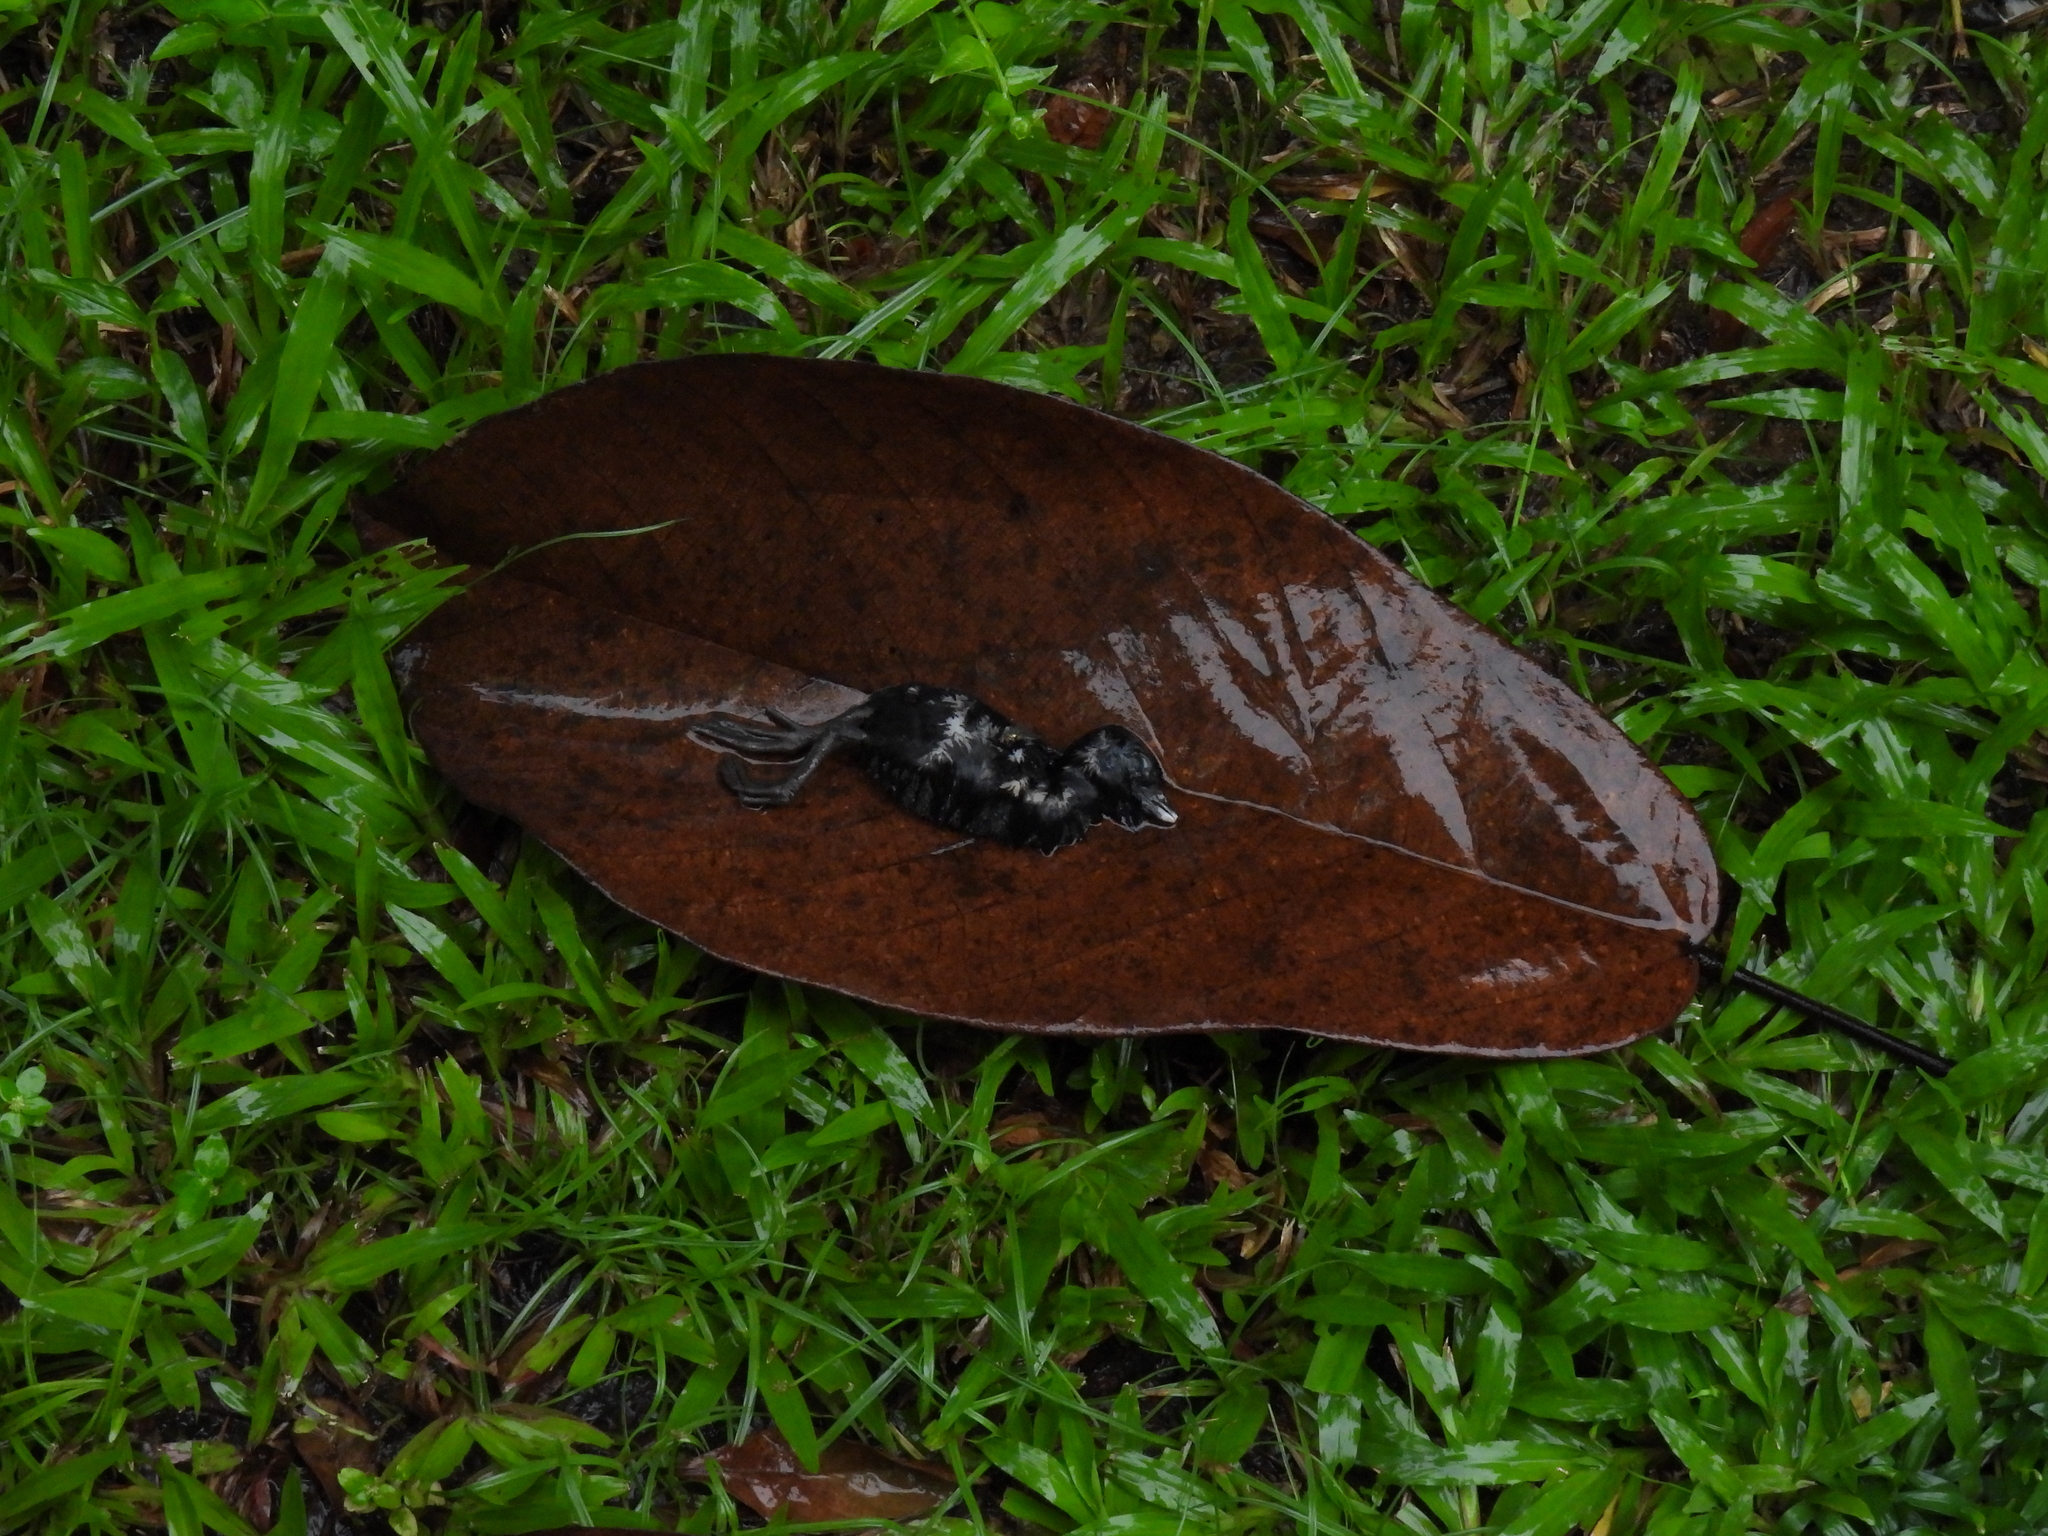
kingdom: Animalia
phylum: Chordata
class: Aves
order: Gruiformes
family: Rallidae
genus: Amaurornis
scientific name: Amaurornis phoenicurus
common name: White-breasted waterhen
